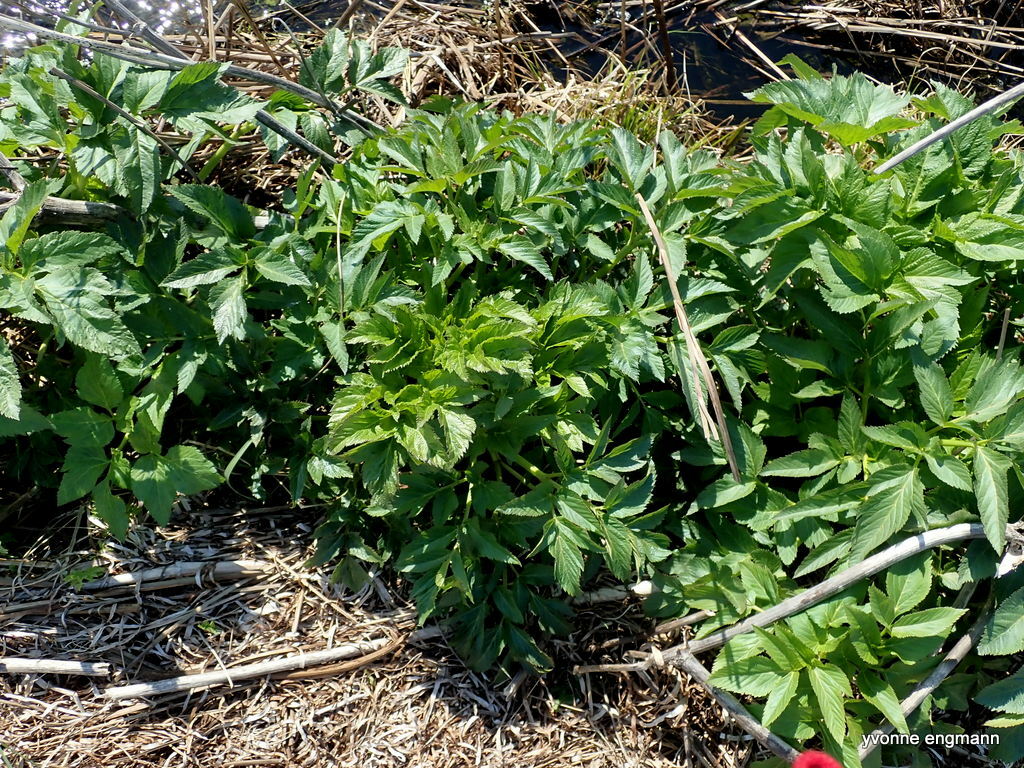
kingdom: Plantae
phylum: Tracheophyta
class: Magnoliopsida
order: Apiales
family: Apiaceae
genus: Angelica
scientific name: Angelica archangelica
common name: Garden angelica
